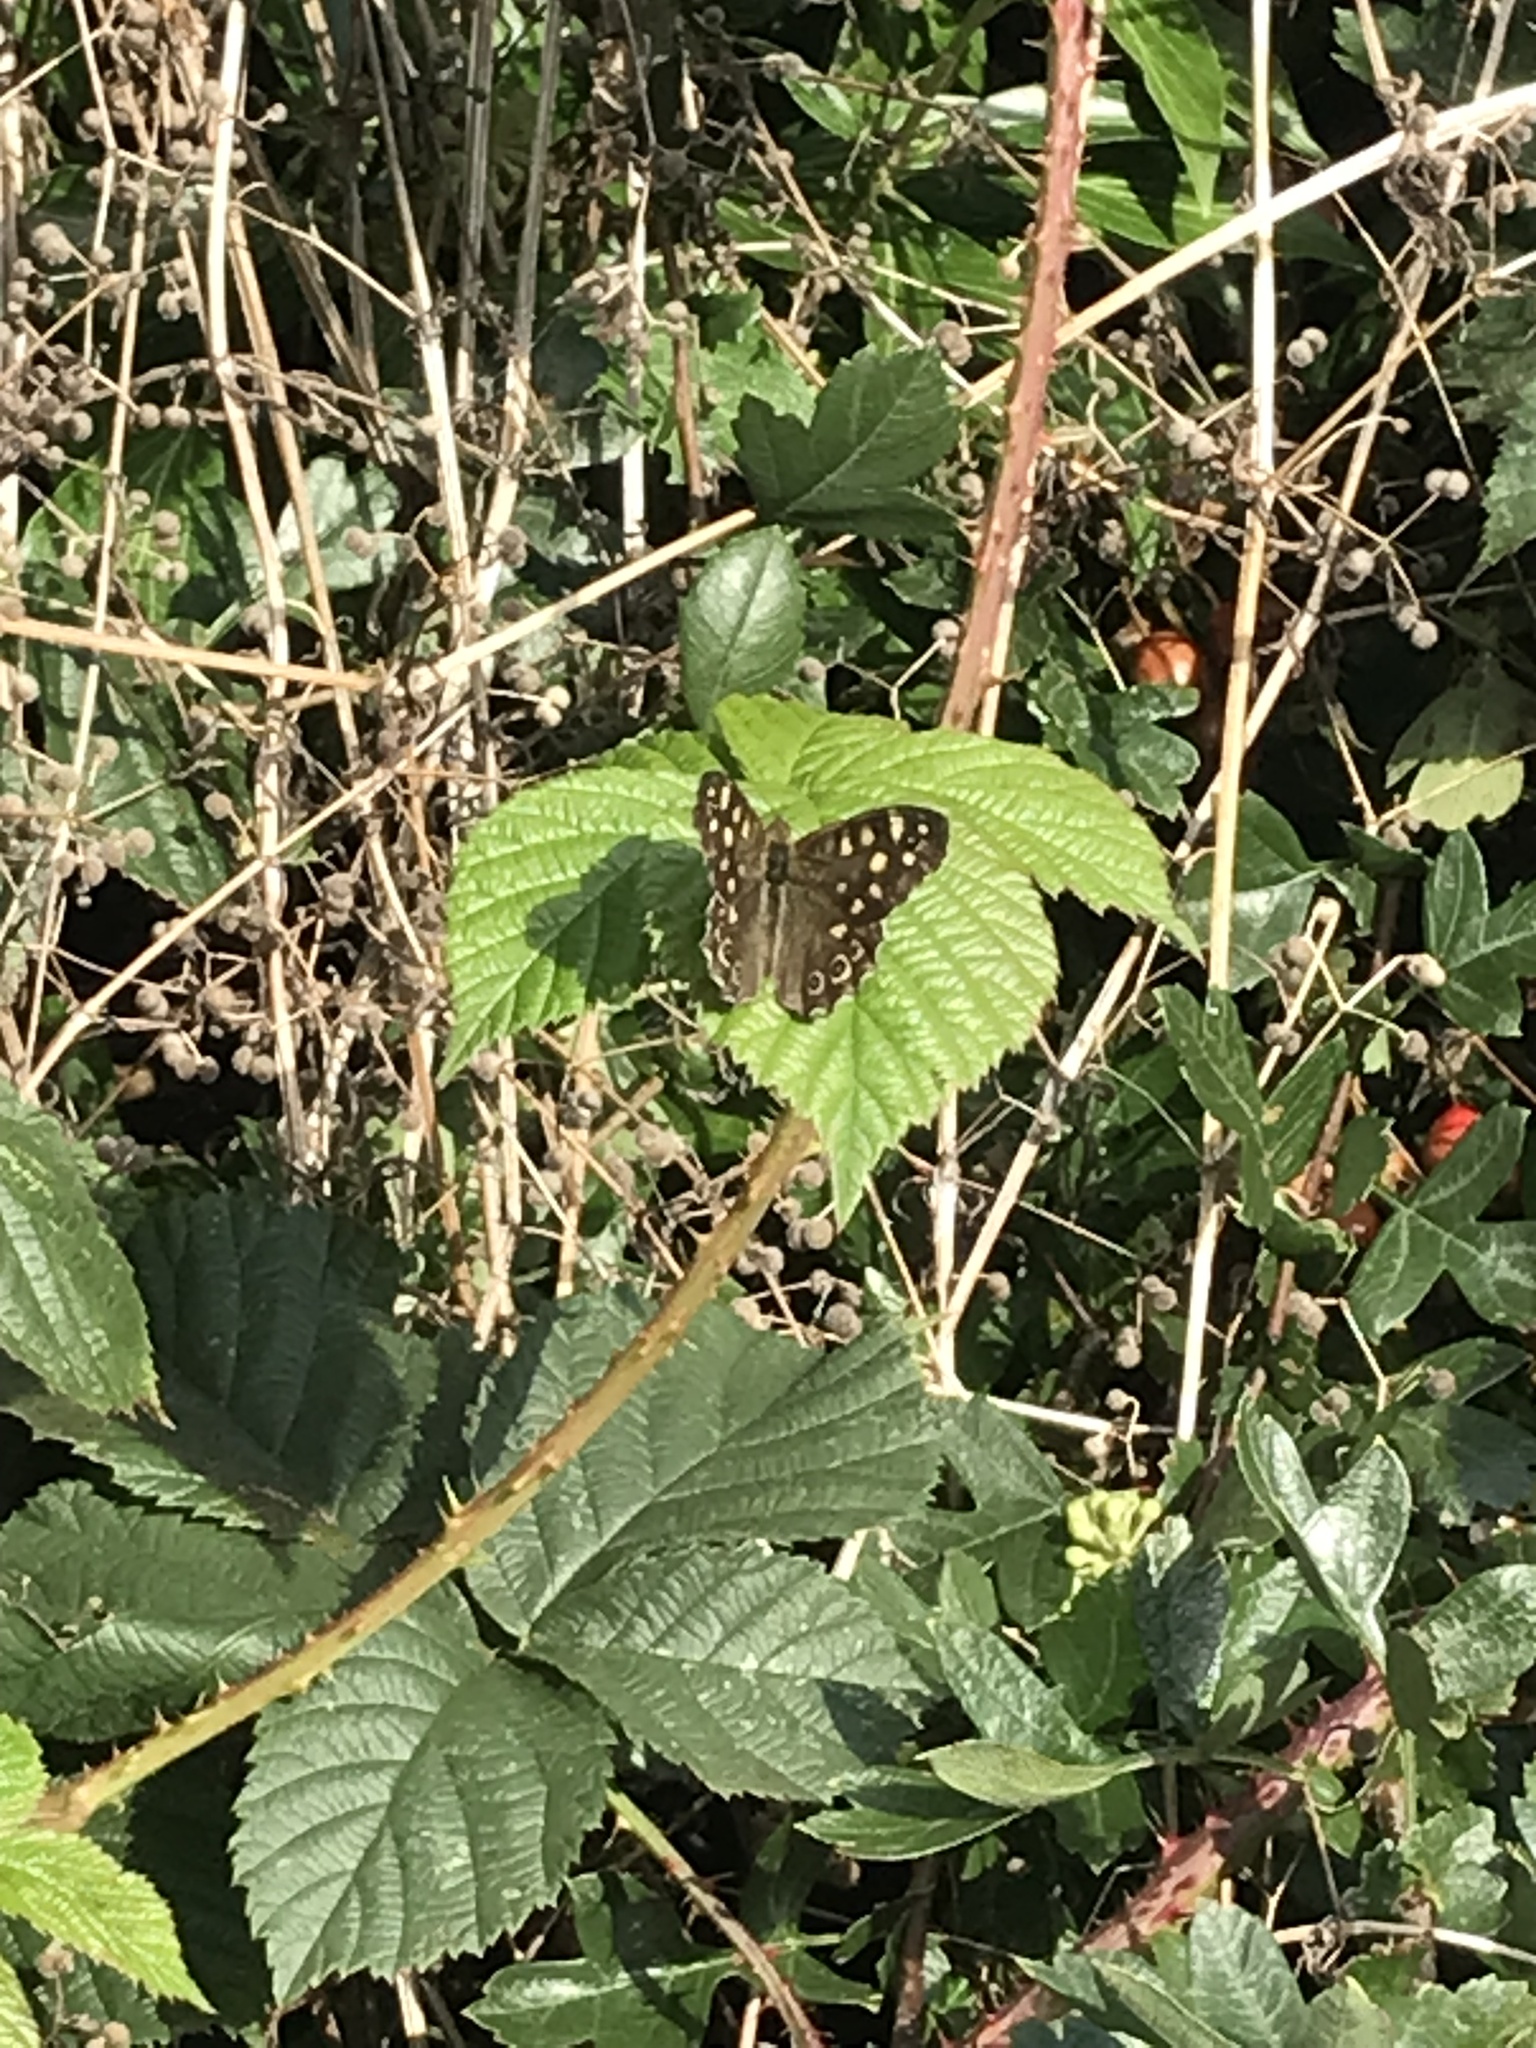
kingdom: Animalia
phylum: Arthropoda
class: Insecta
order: Lepidoptera
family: Nymphalidae
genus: Pararge
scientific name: Pararge aegeria
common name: Speckled wood
